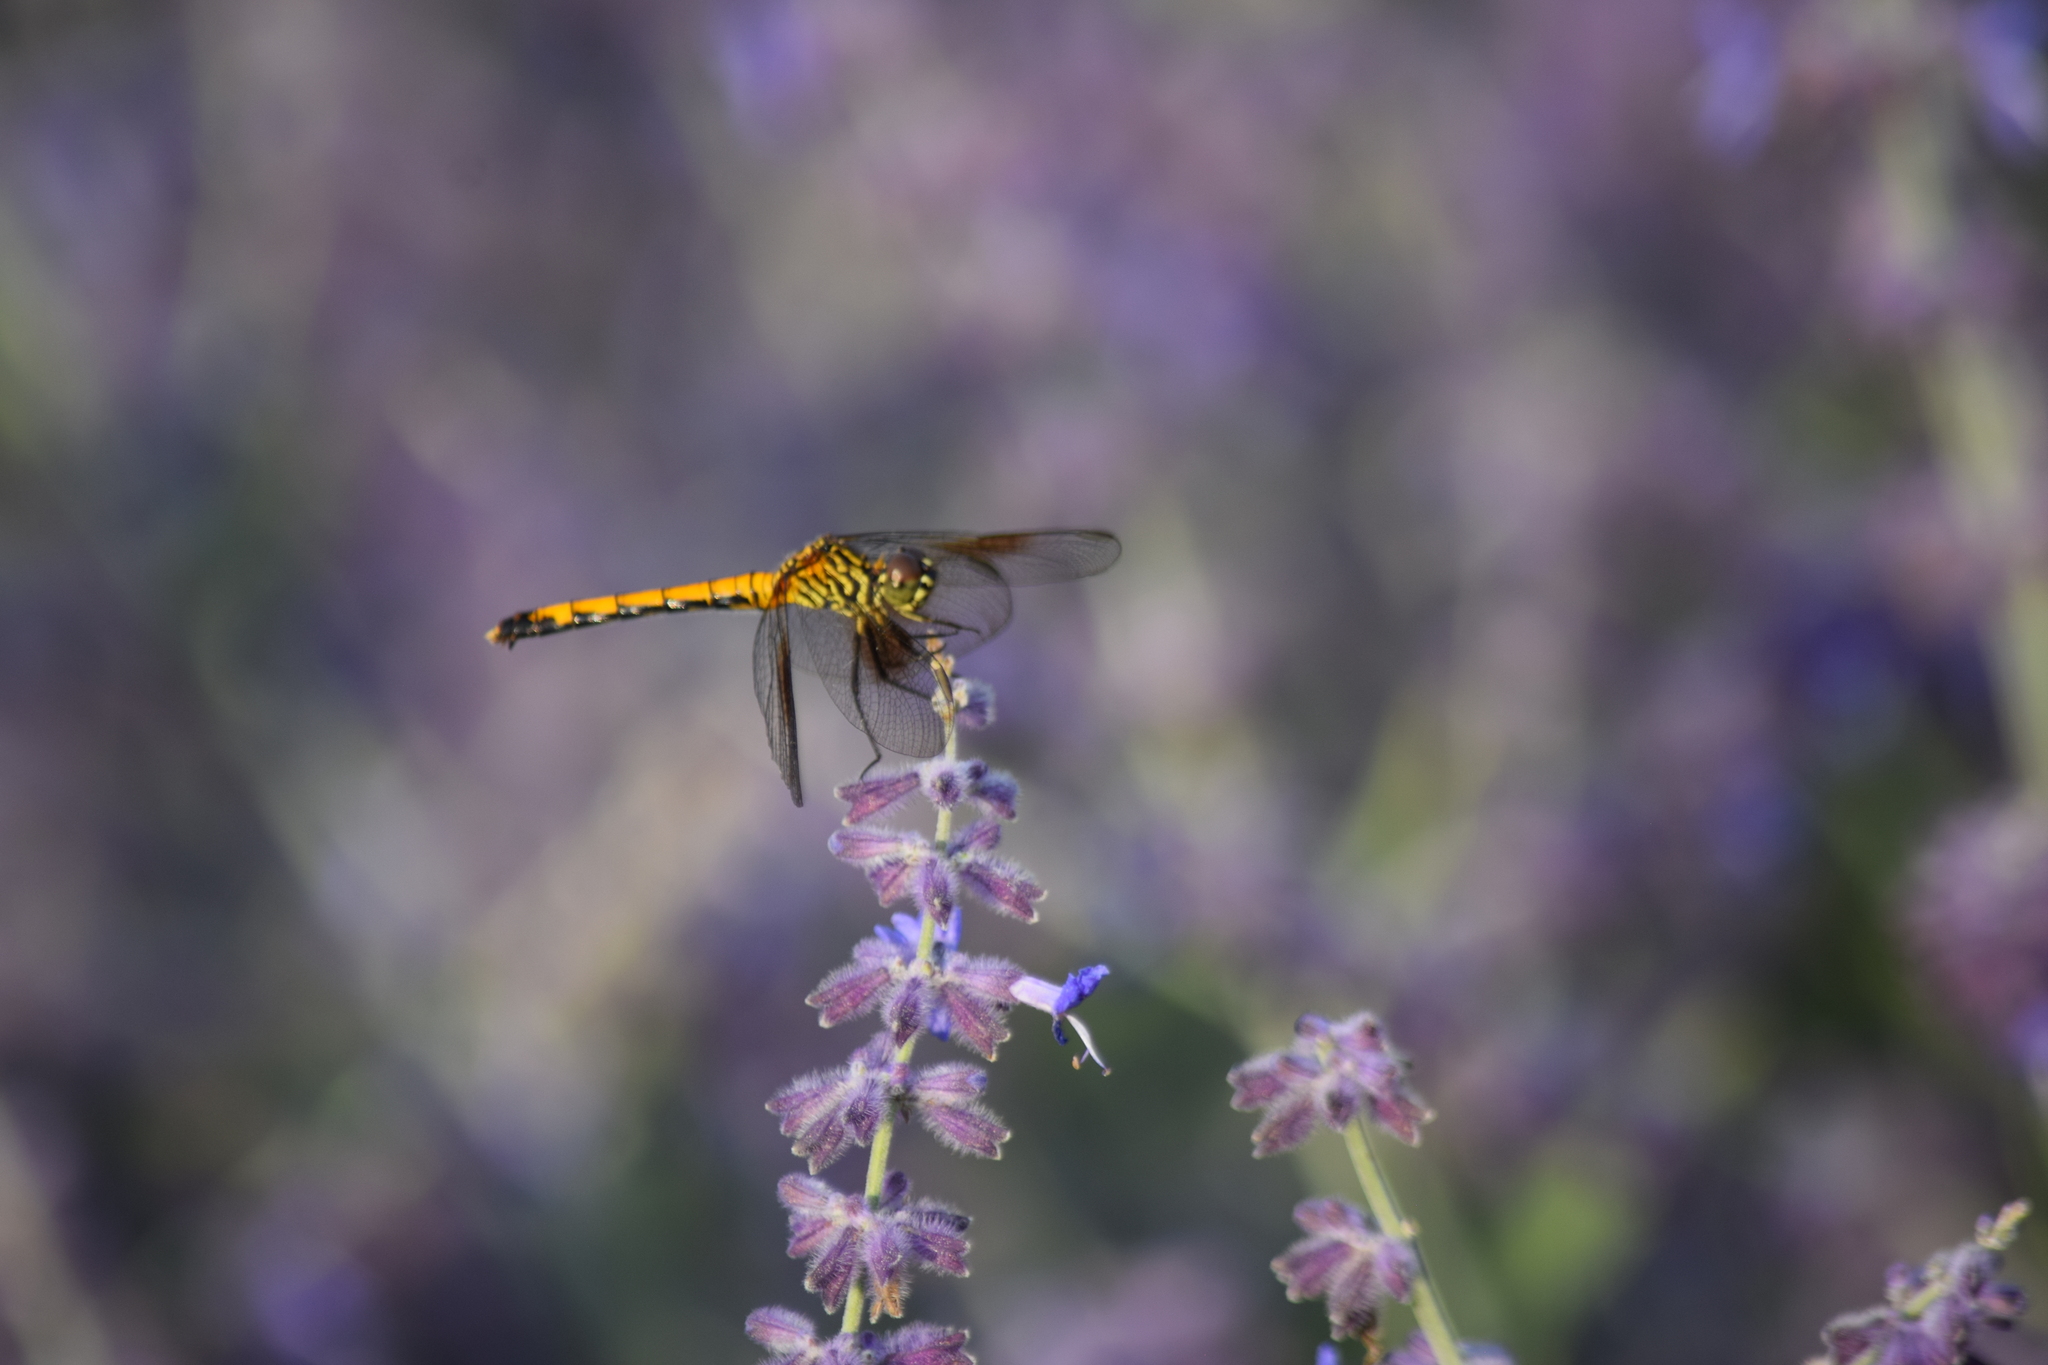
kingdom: Animalia
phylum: Arthropoda
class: Insecta
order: Odonata
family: Libellulidae
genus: Erythrodiplax
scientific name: Erythrodiplax berenice
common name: Seaside dragonlet
